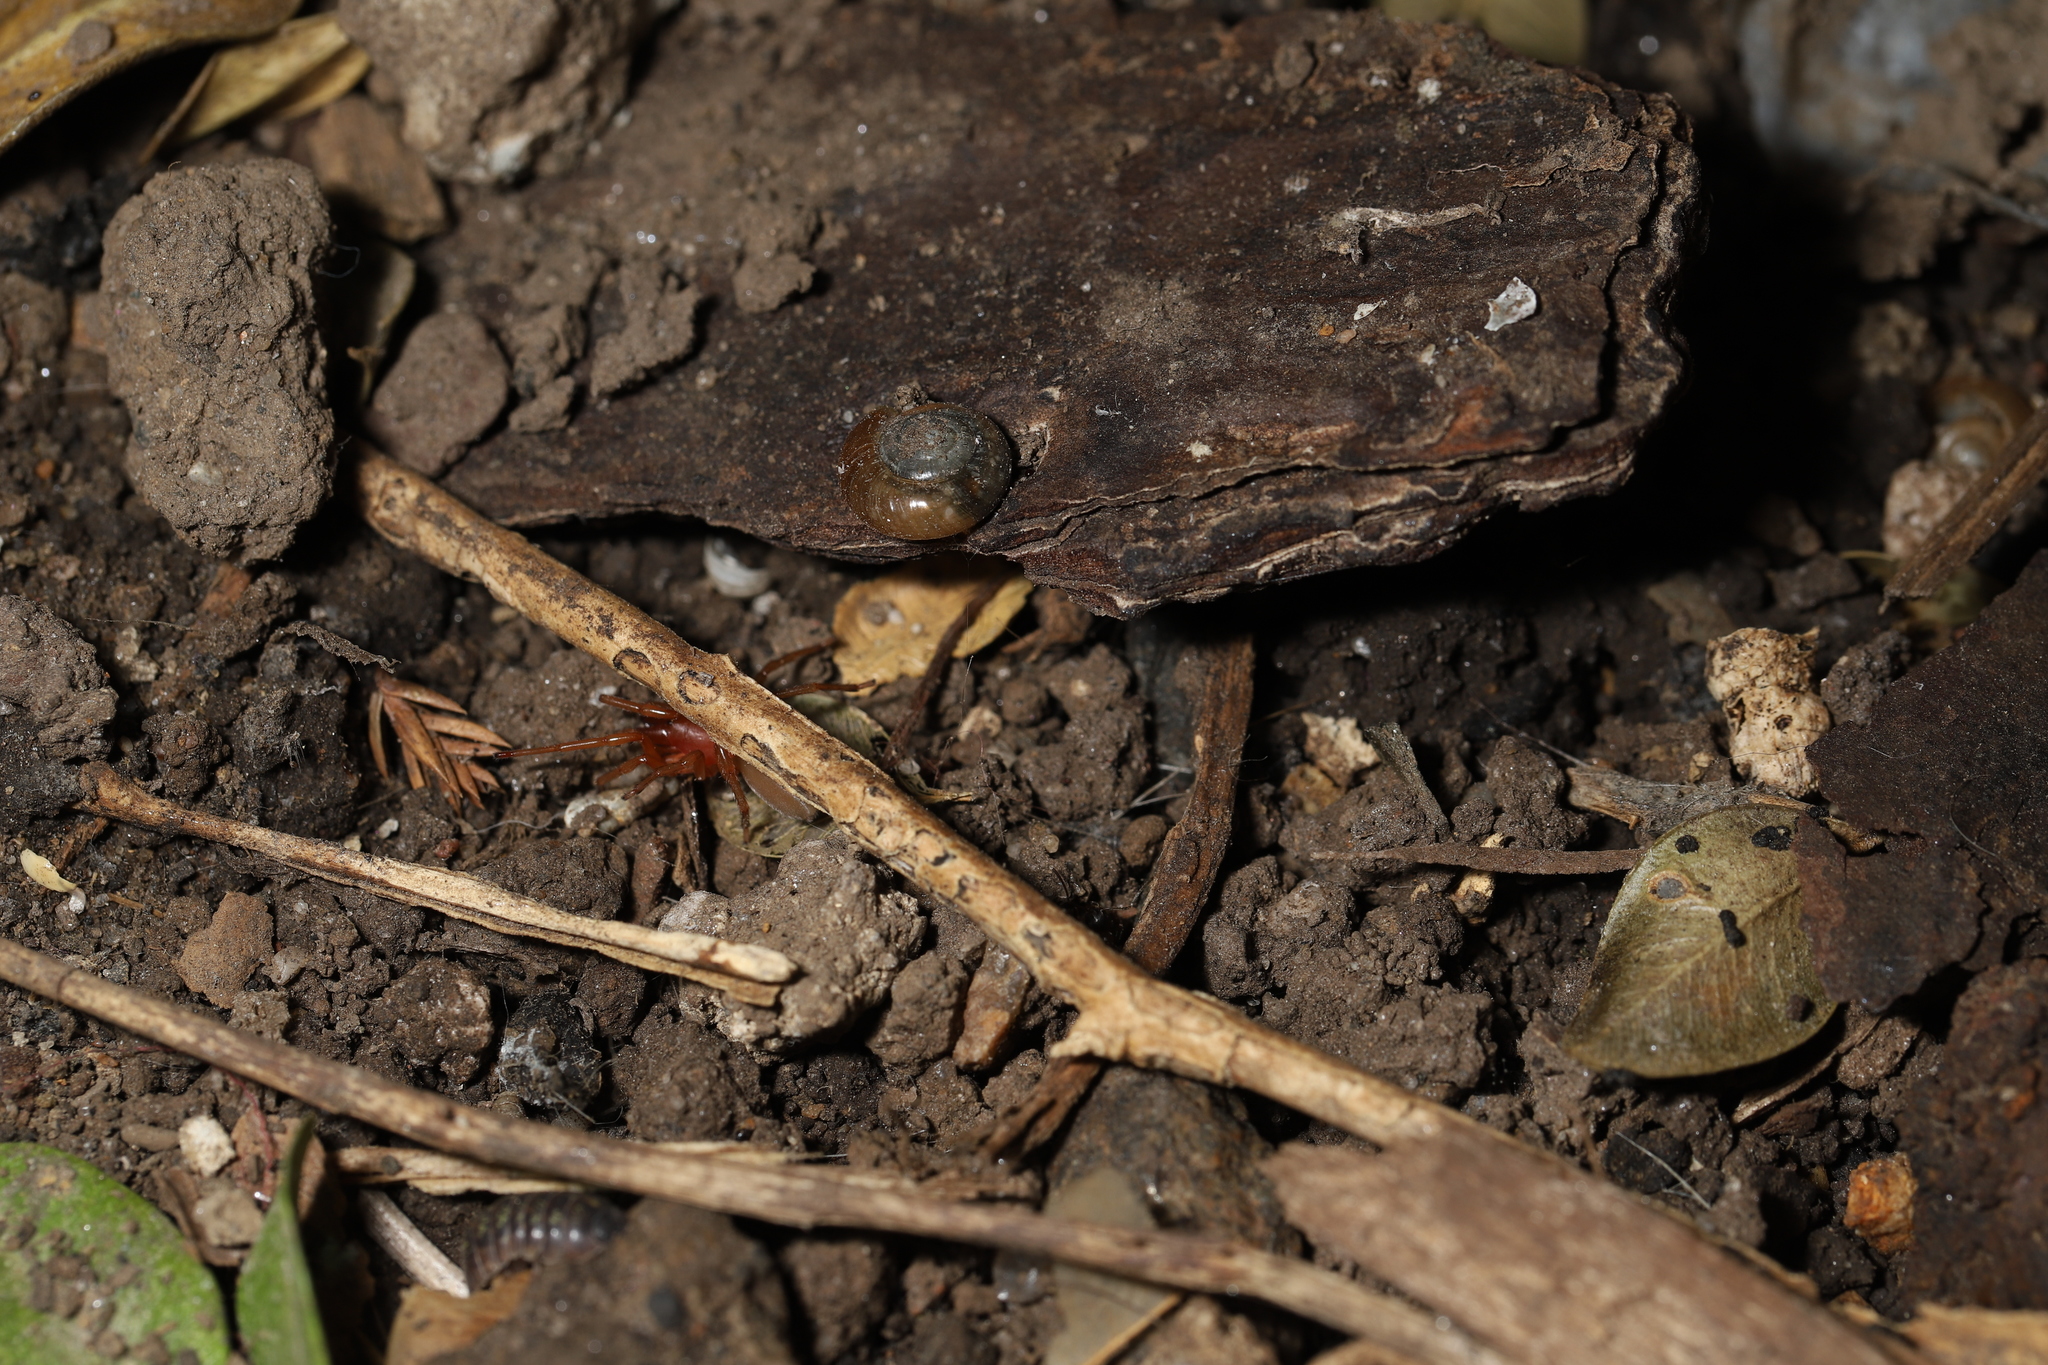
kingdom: Animalia
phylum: Arthropoda
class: Arachnida
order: Araneae
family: Dysderidae
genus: Dysdera
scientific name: Dysdera crocata
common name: Woodlouse spider
